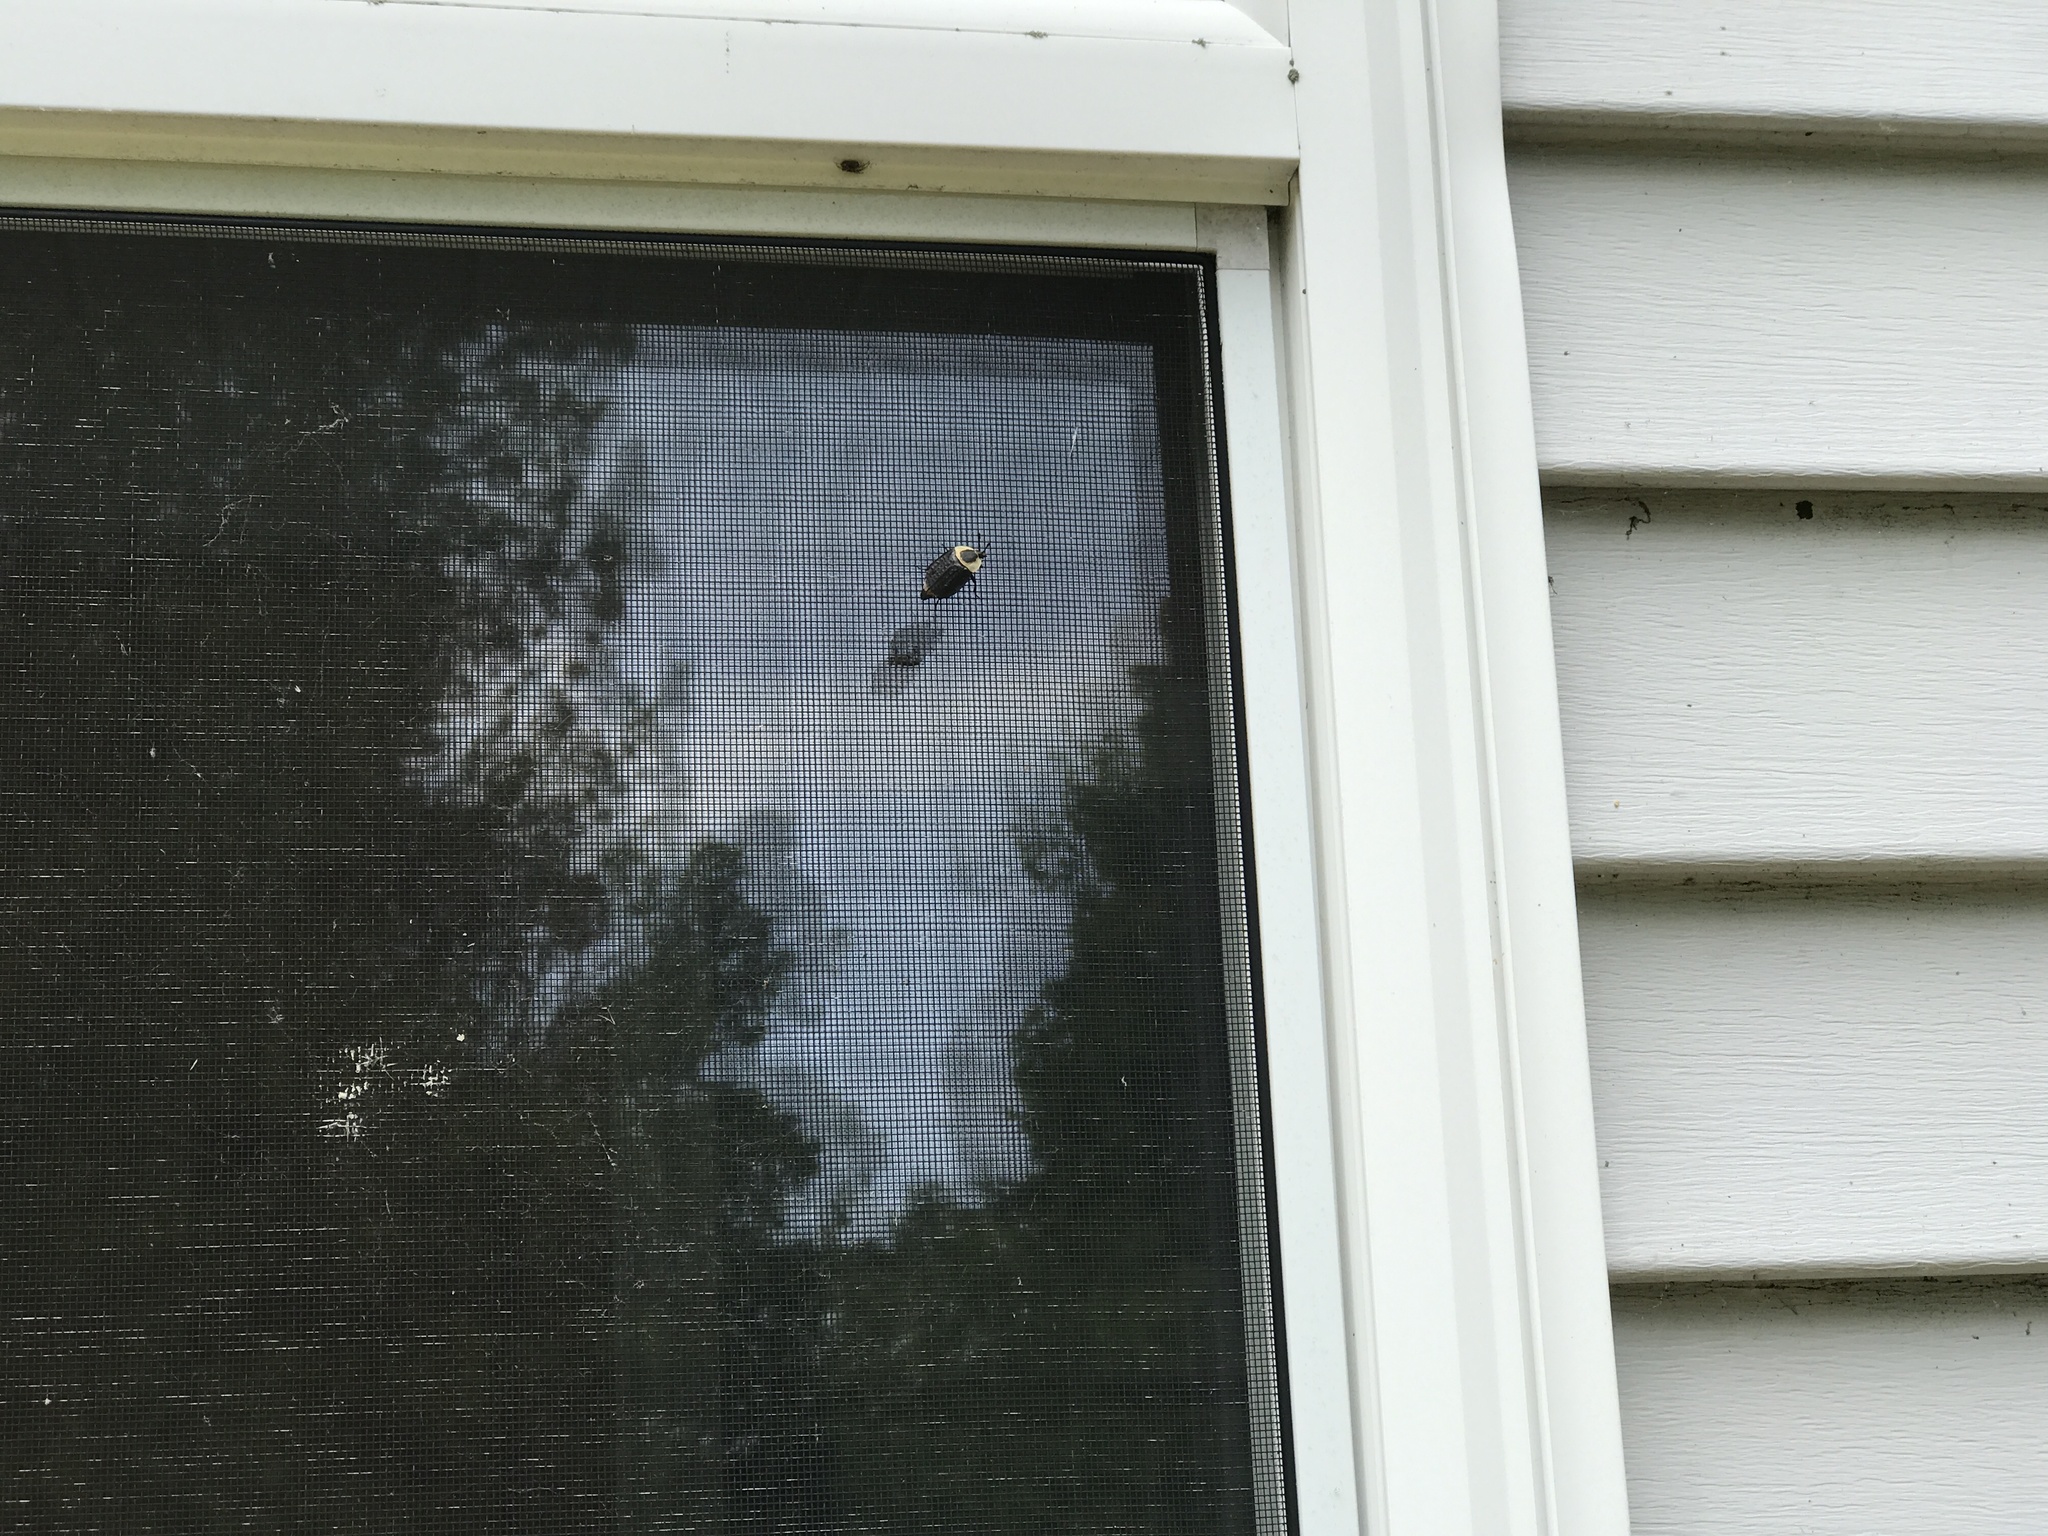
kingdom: Animalia
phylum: Arthropoda
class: Insecta
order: Coleoptera
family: Staphylinidae
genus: Necrophila
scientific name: Necrophila americana
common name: American carrion beetle
